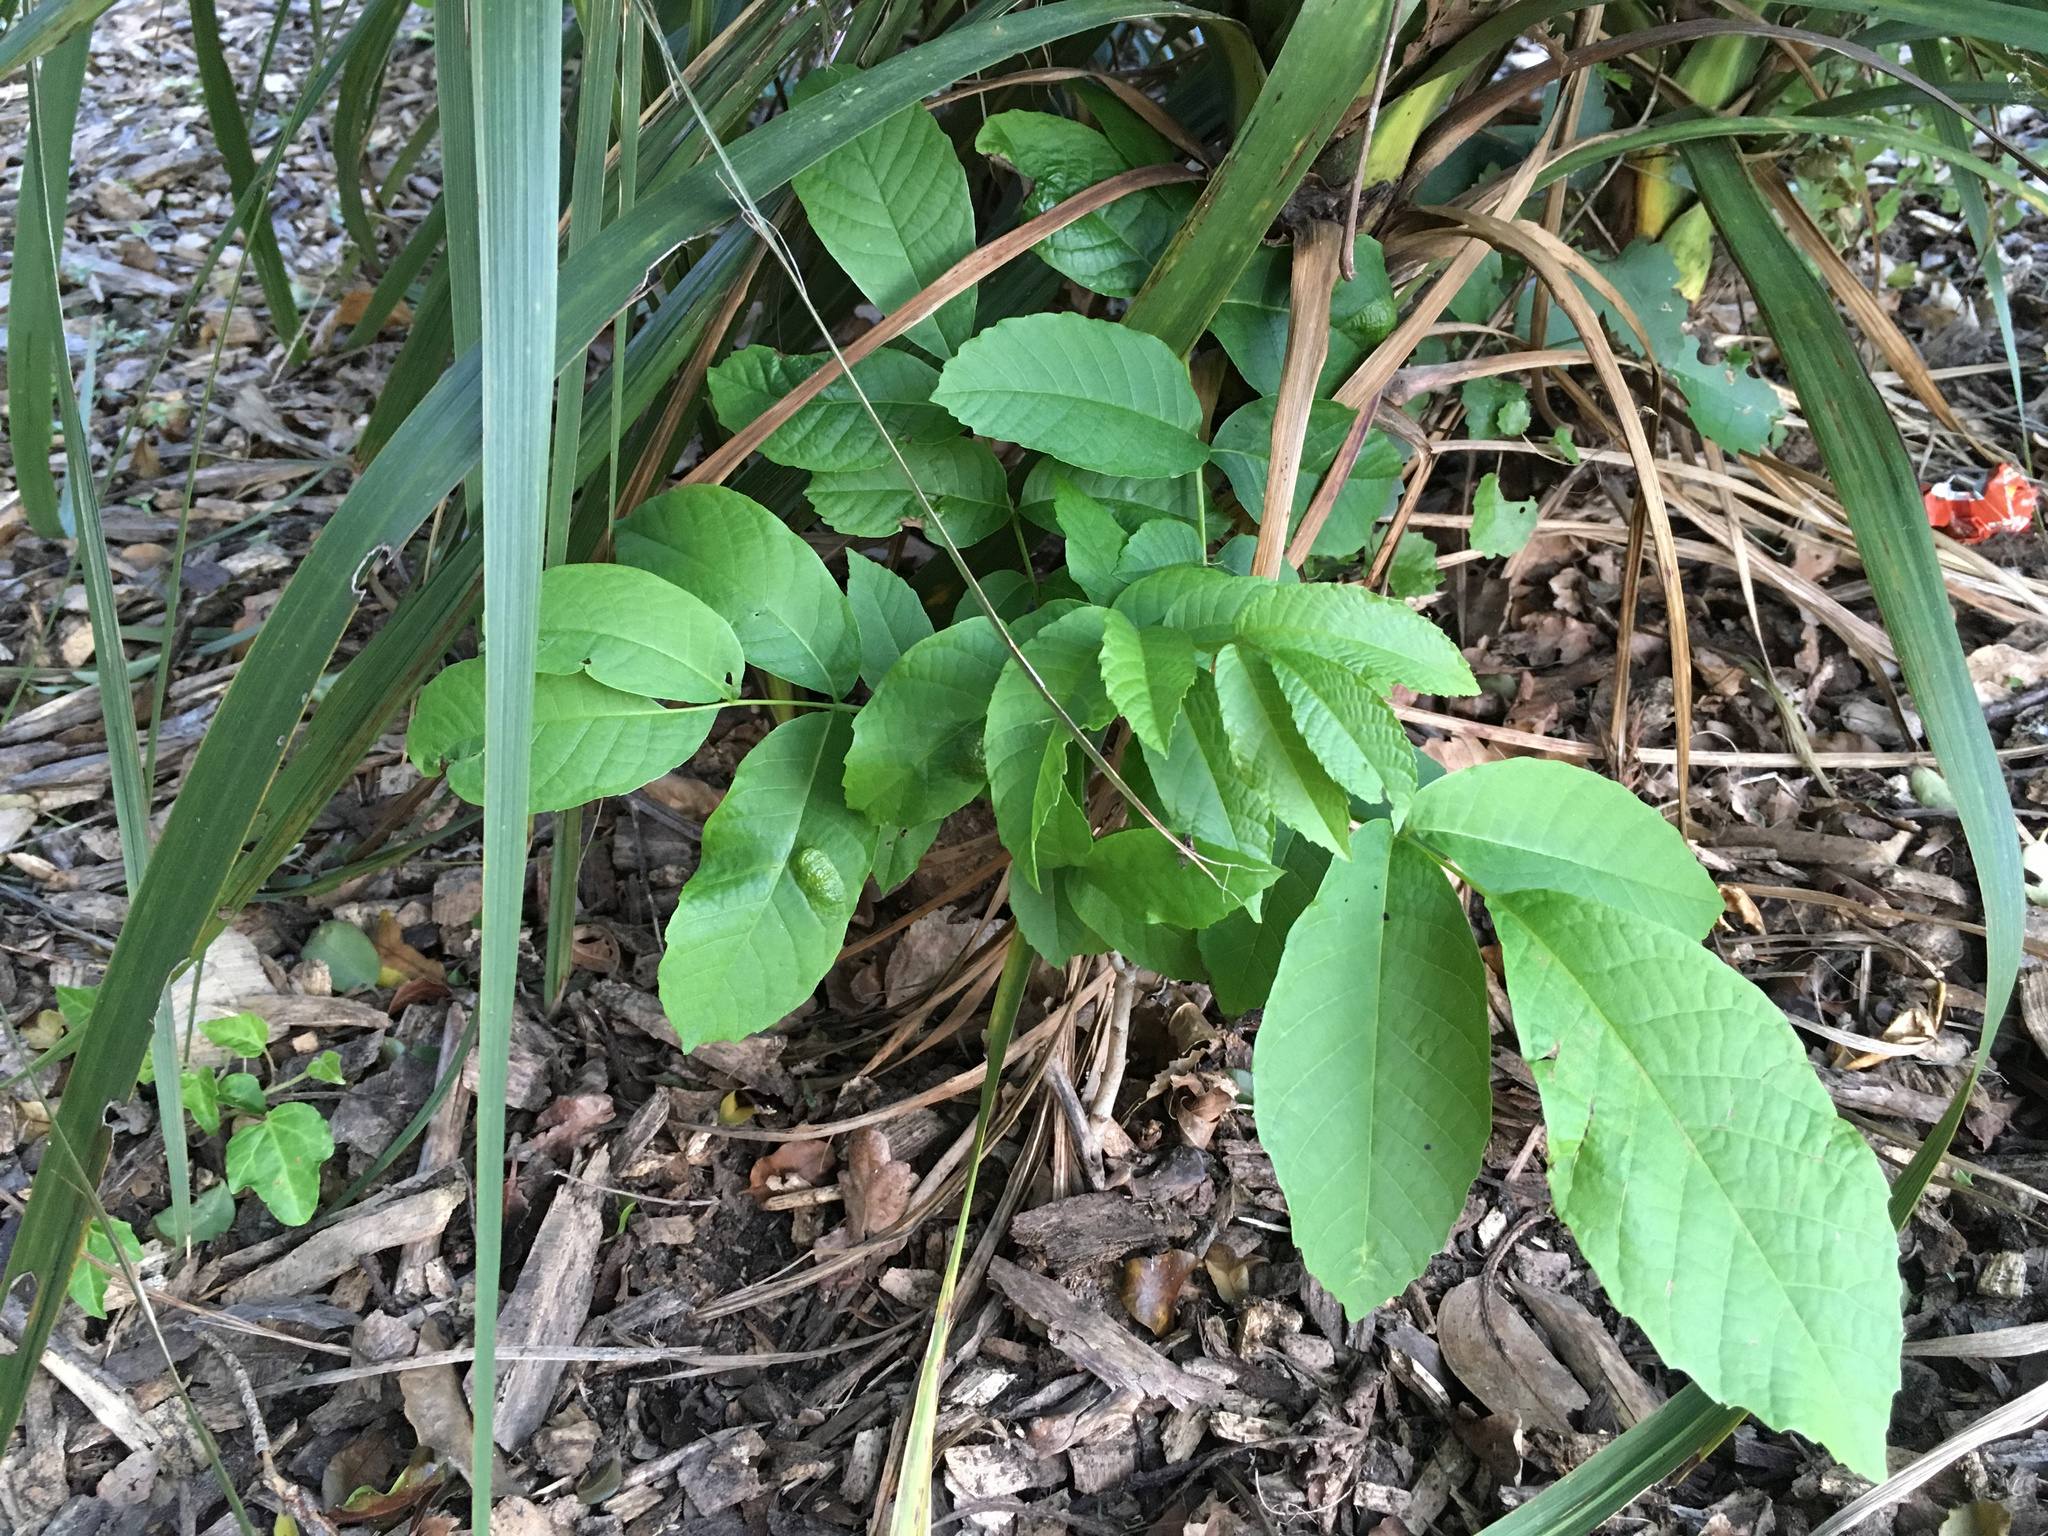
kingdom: Plantae
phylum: Tracheophyta
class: Magnoliopsida
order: Fagales
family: Juglandaceae
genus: Juglans
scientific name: Juglans regia
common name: Walnut
